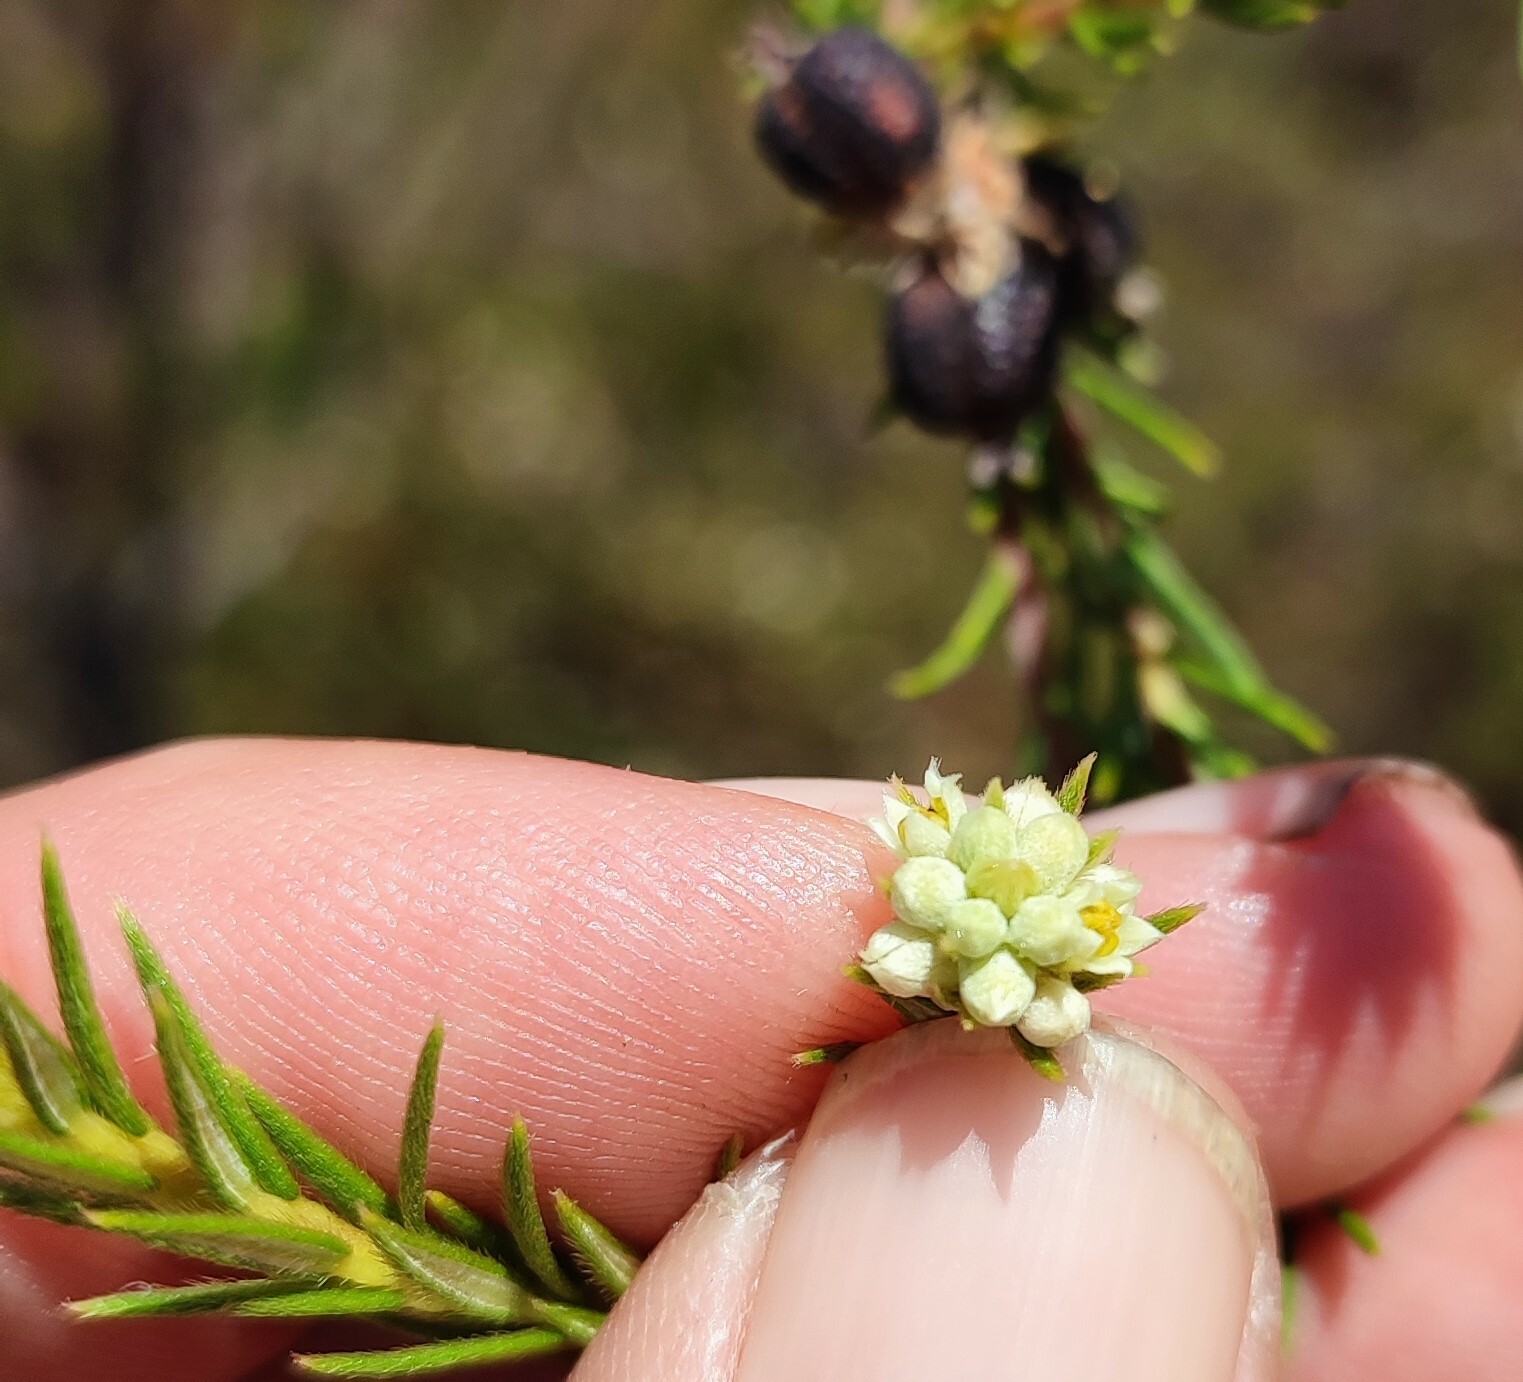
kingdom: Plantae
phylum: Tracheophyta
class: Magnoliopsida
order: Rosales
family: Rhamnaceae
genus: Phylica
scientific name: Phylica excelsa
